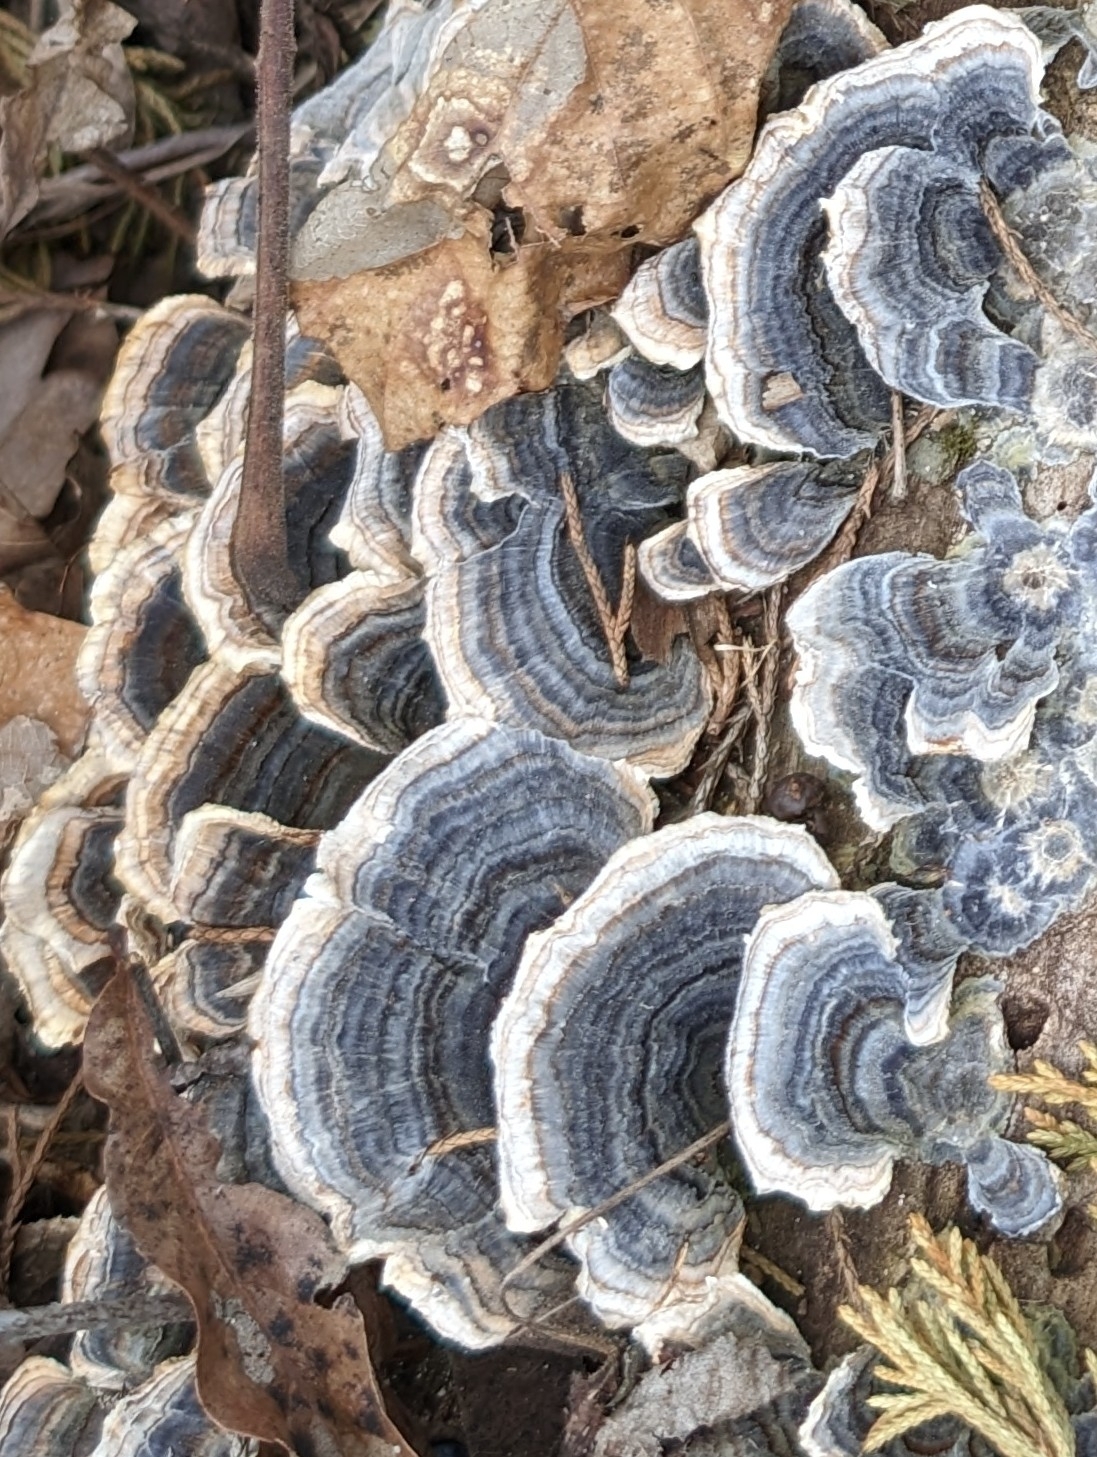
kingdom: Fungi
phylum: Basidiomycota
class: Agaricomycetes
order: Polyporales
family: Polyporaceae
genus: Trametes
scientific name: Trametes versicolor
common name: Turkeytail
